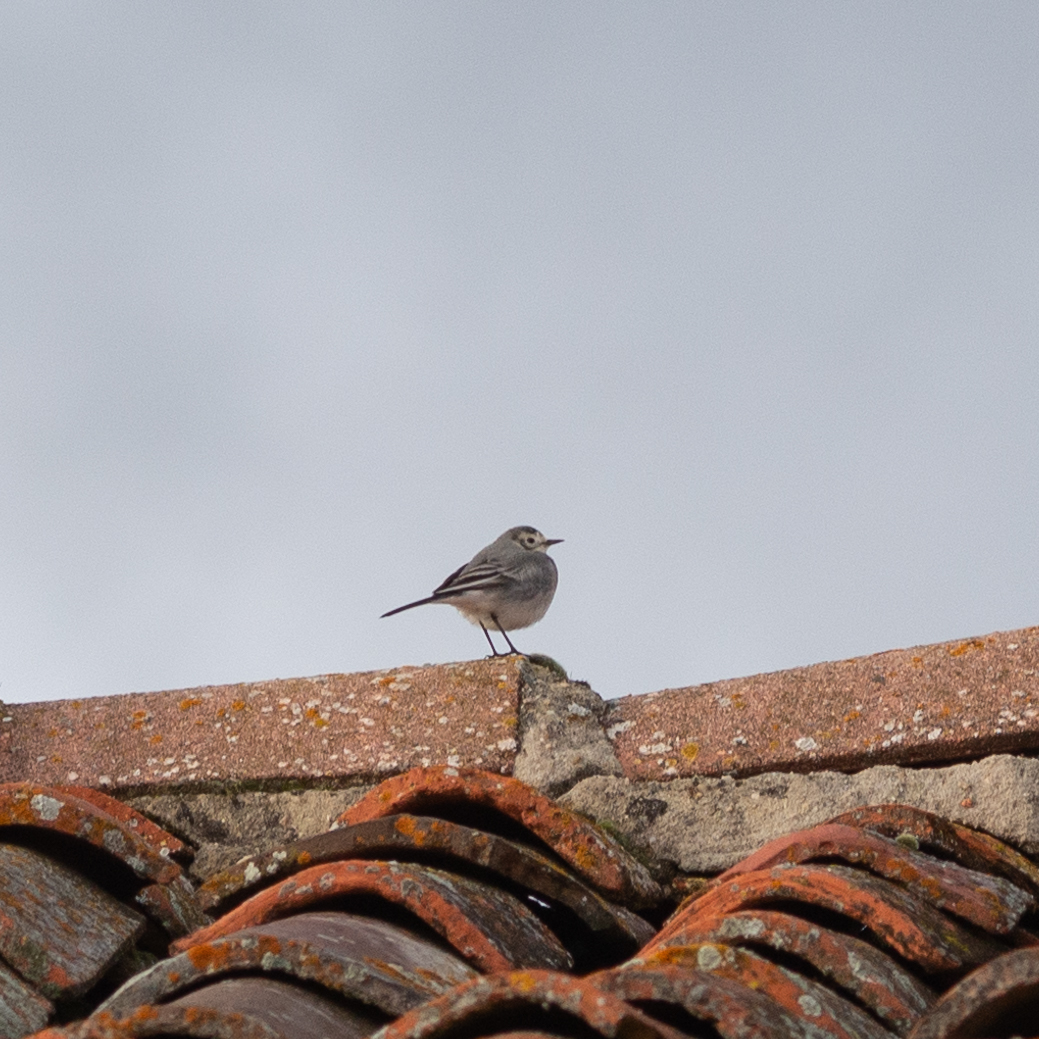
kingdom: Animalia
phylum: Chordata
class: Aves
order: Passeriformes
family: Motacillidae
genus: Motacilla
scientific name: Motacilla alba
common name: White wagtail
